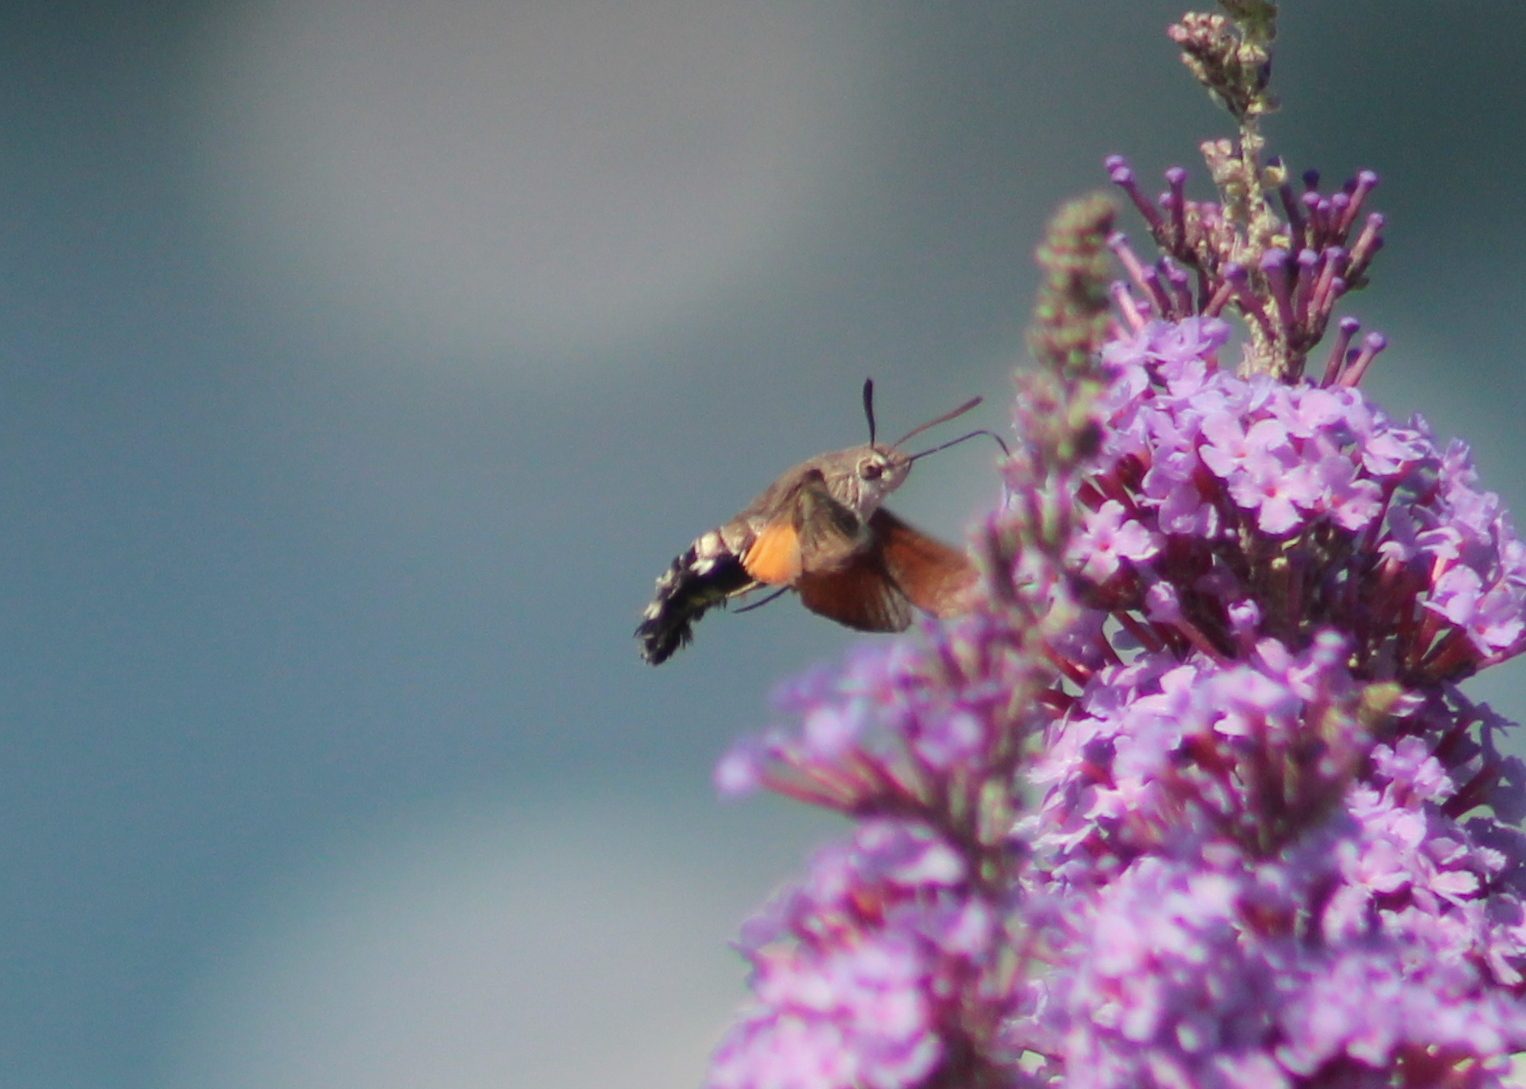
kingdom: Animalia
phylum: Arthropoda
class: Insecta
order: Lepidoptera
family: Sphingidae
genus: Macroglossum
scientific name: Macroglossum stellatarum
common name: Humming-bird hawk-moth
